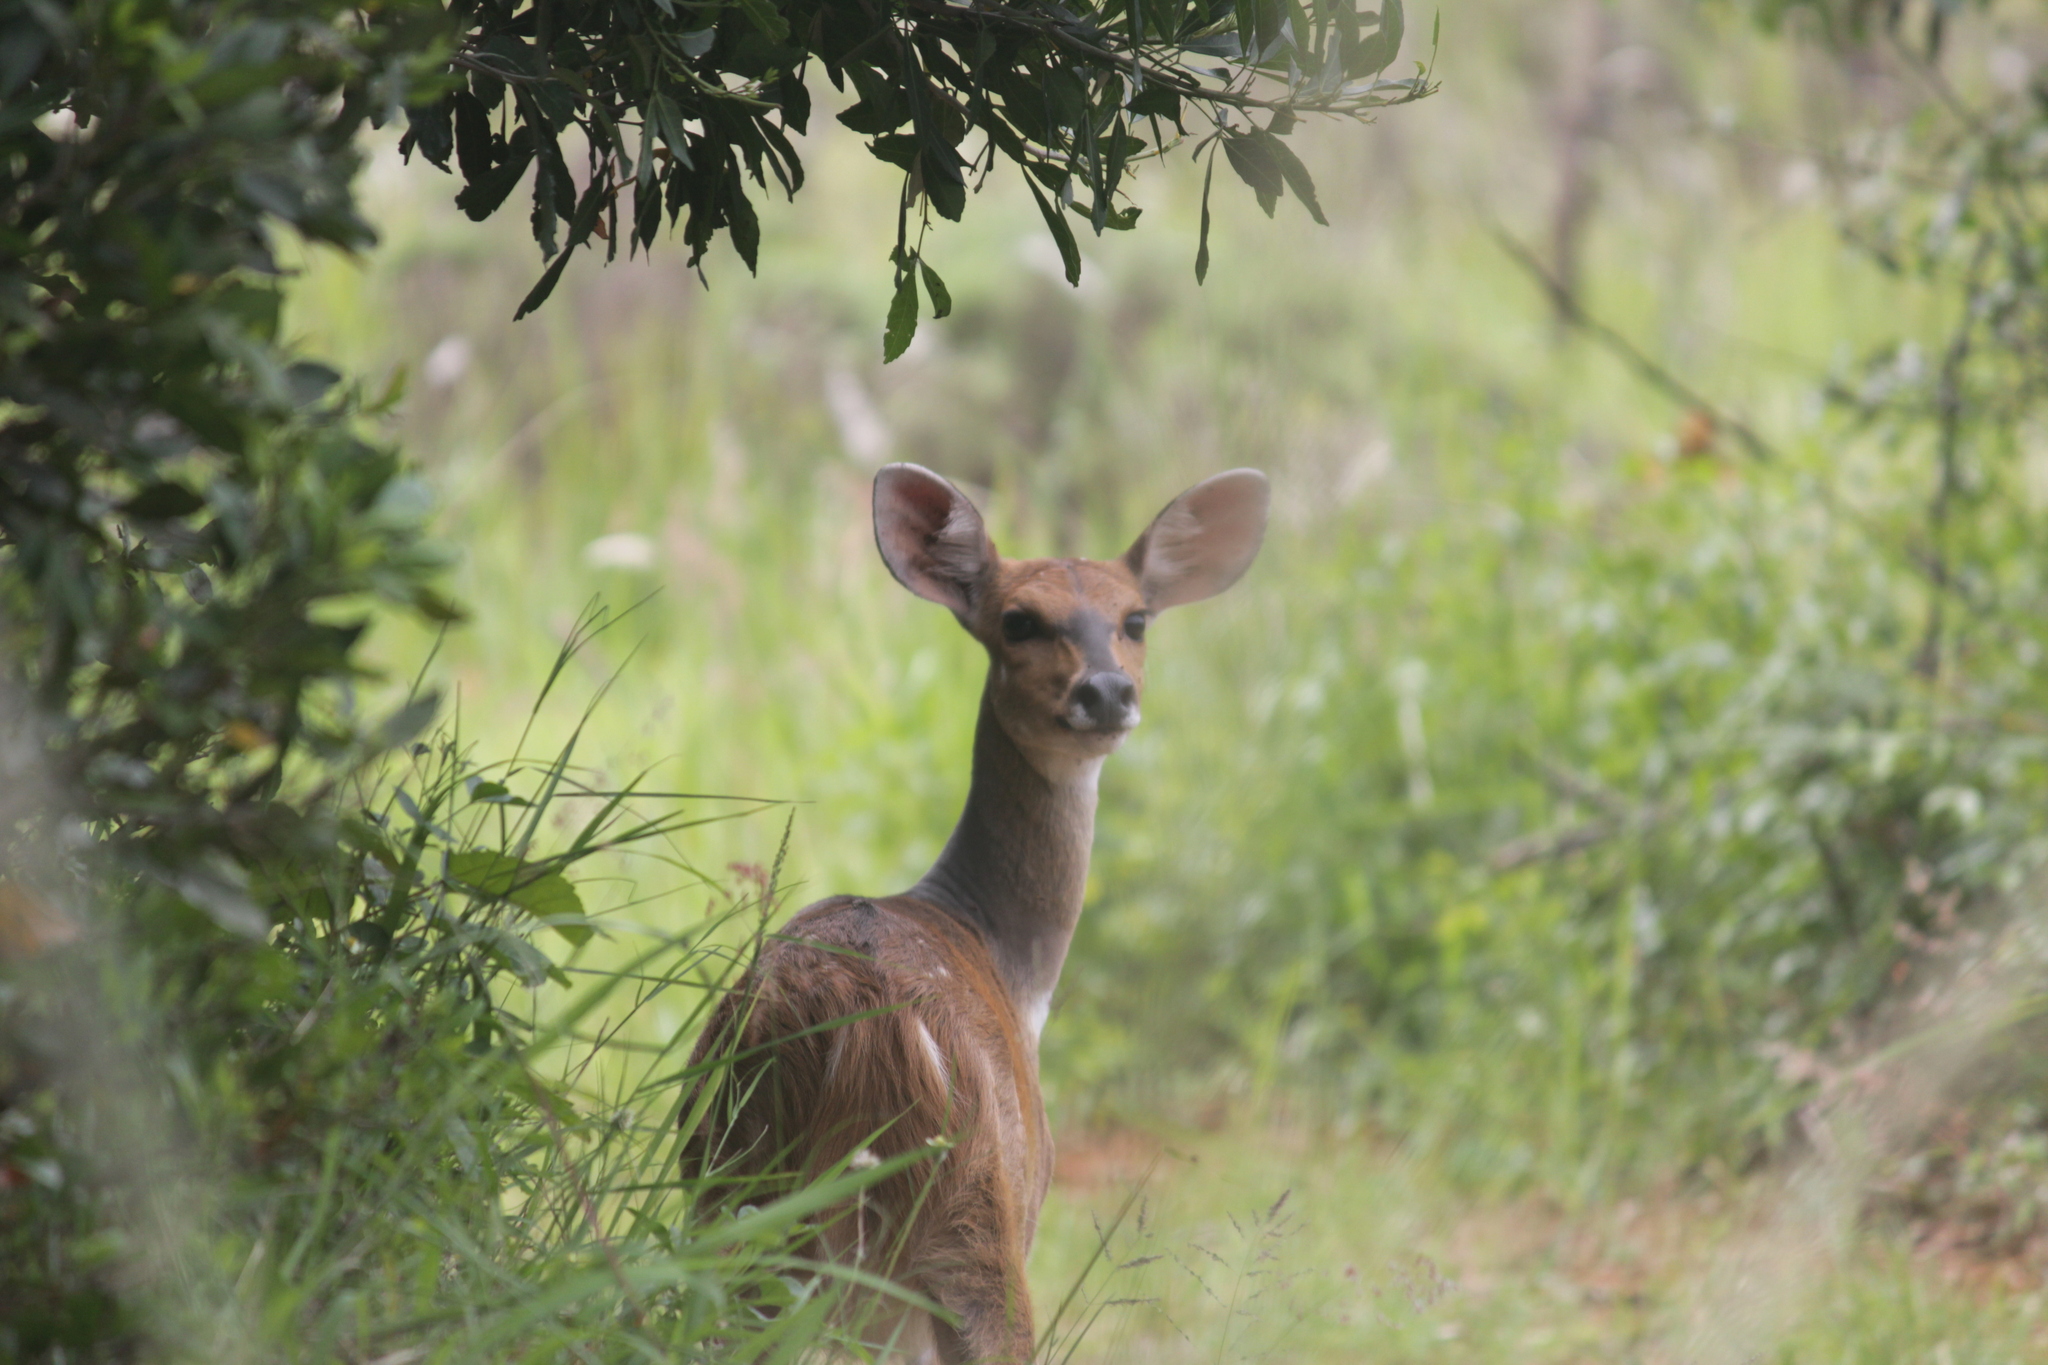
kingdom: Animalia
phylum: Chordata
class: Mammalia
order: Artiodactyla
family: Bovidae
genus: Tragelaphus
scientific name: Tragelaphus scriptus
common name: Bushbuck
